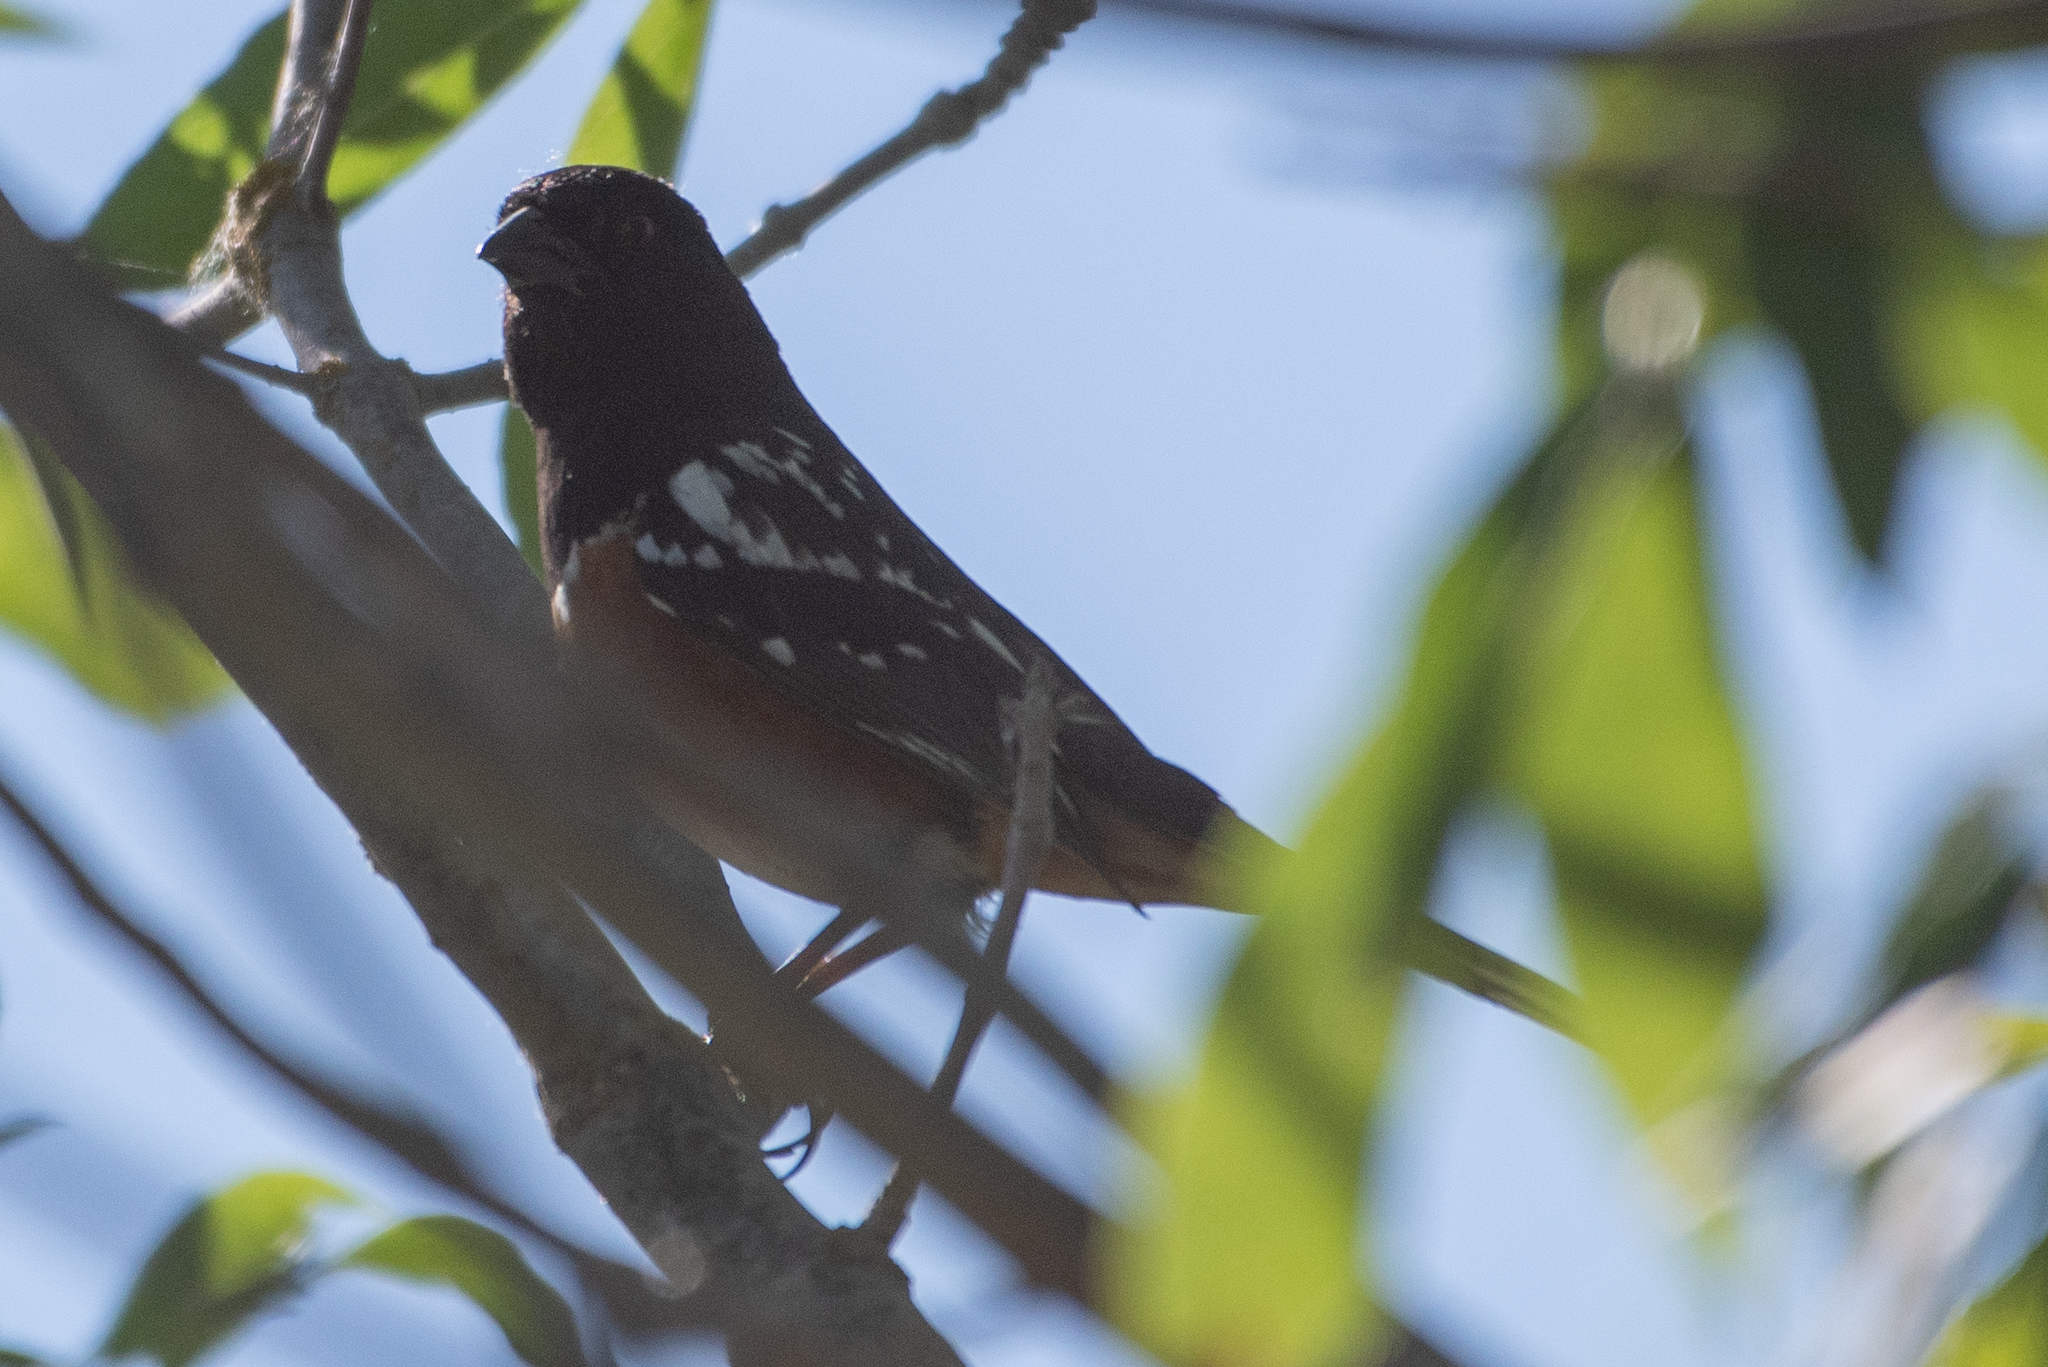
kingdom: Animalia
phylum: Chordata
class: Aves
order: Passeriformes
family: Passerellidae
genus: Pipilo
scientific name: Pipilo maculatus
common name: Spotted towhee
